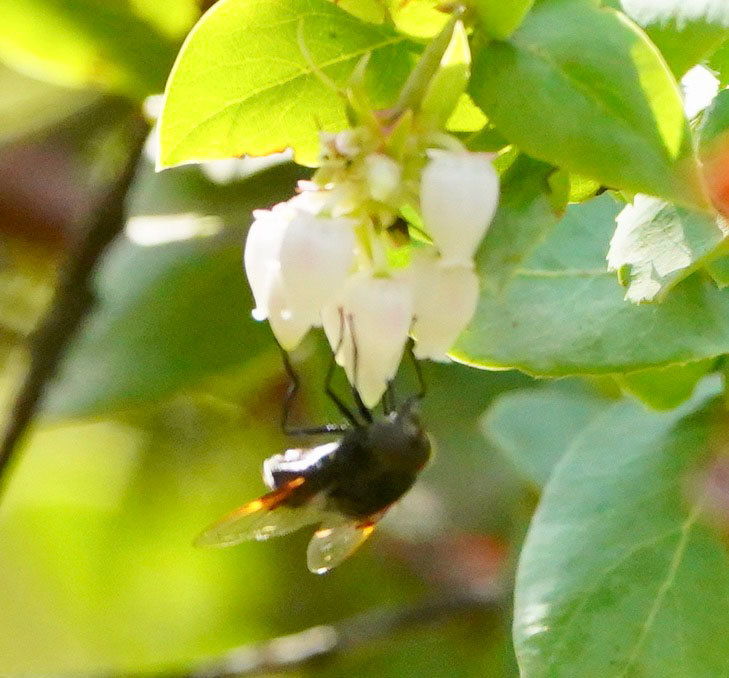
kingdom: Animalia
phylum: Arthropoda
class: Insecta
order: Diptera
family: Syrphidae
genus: Copestylum
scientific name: Copestylum mexicanum
